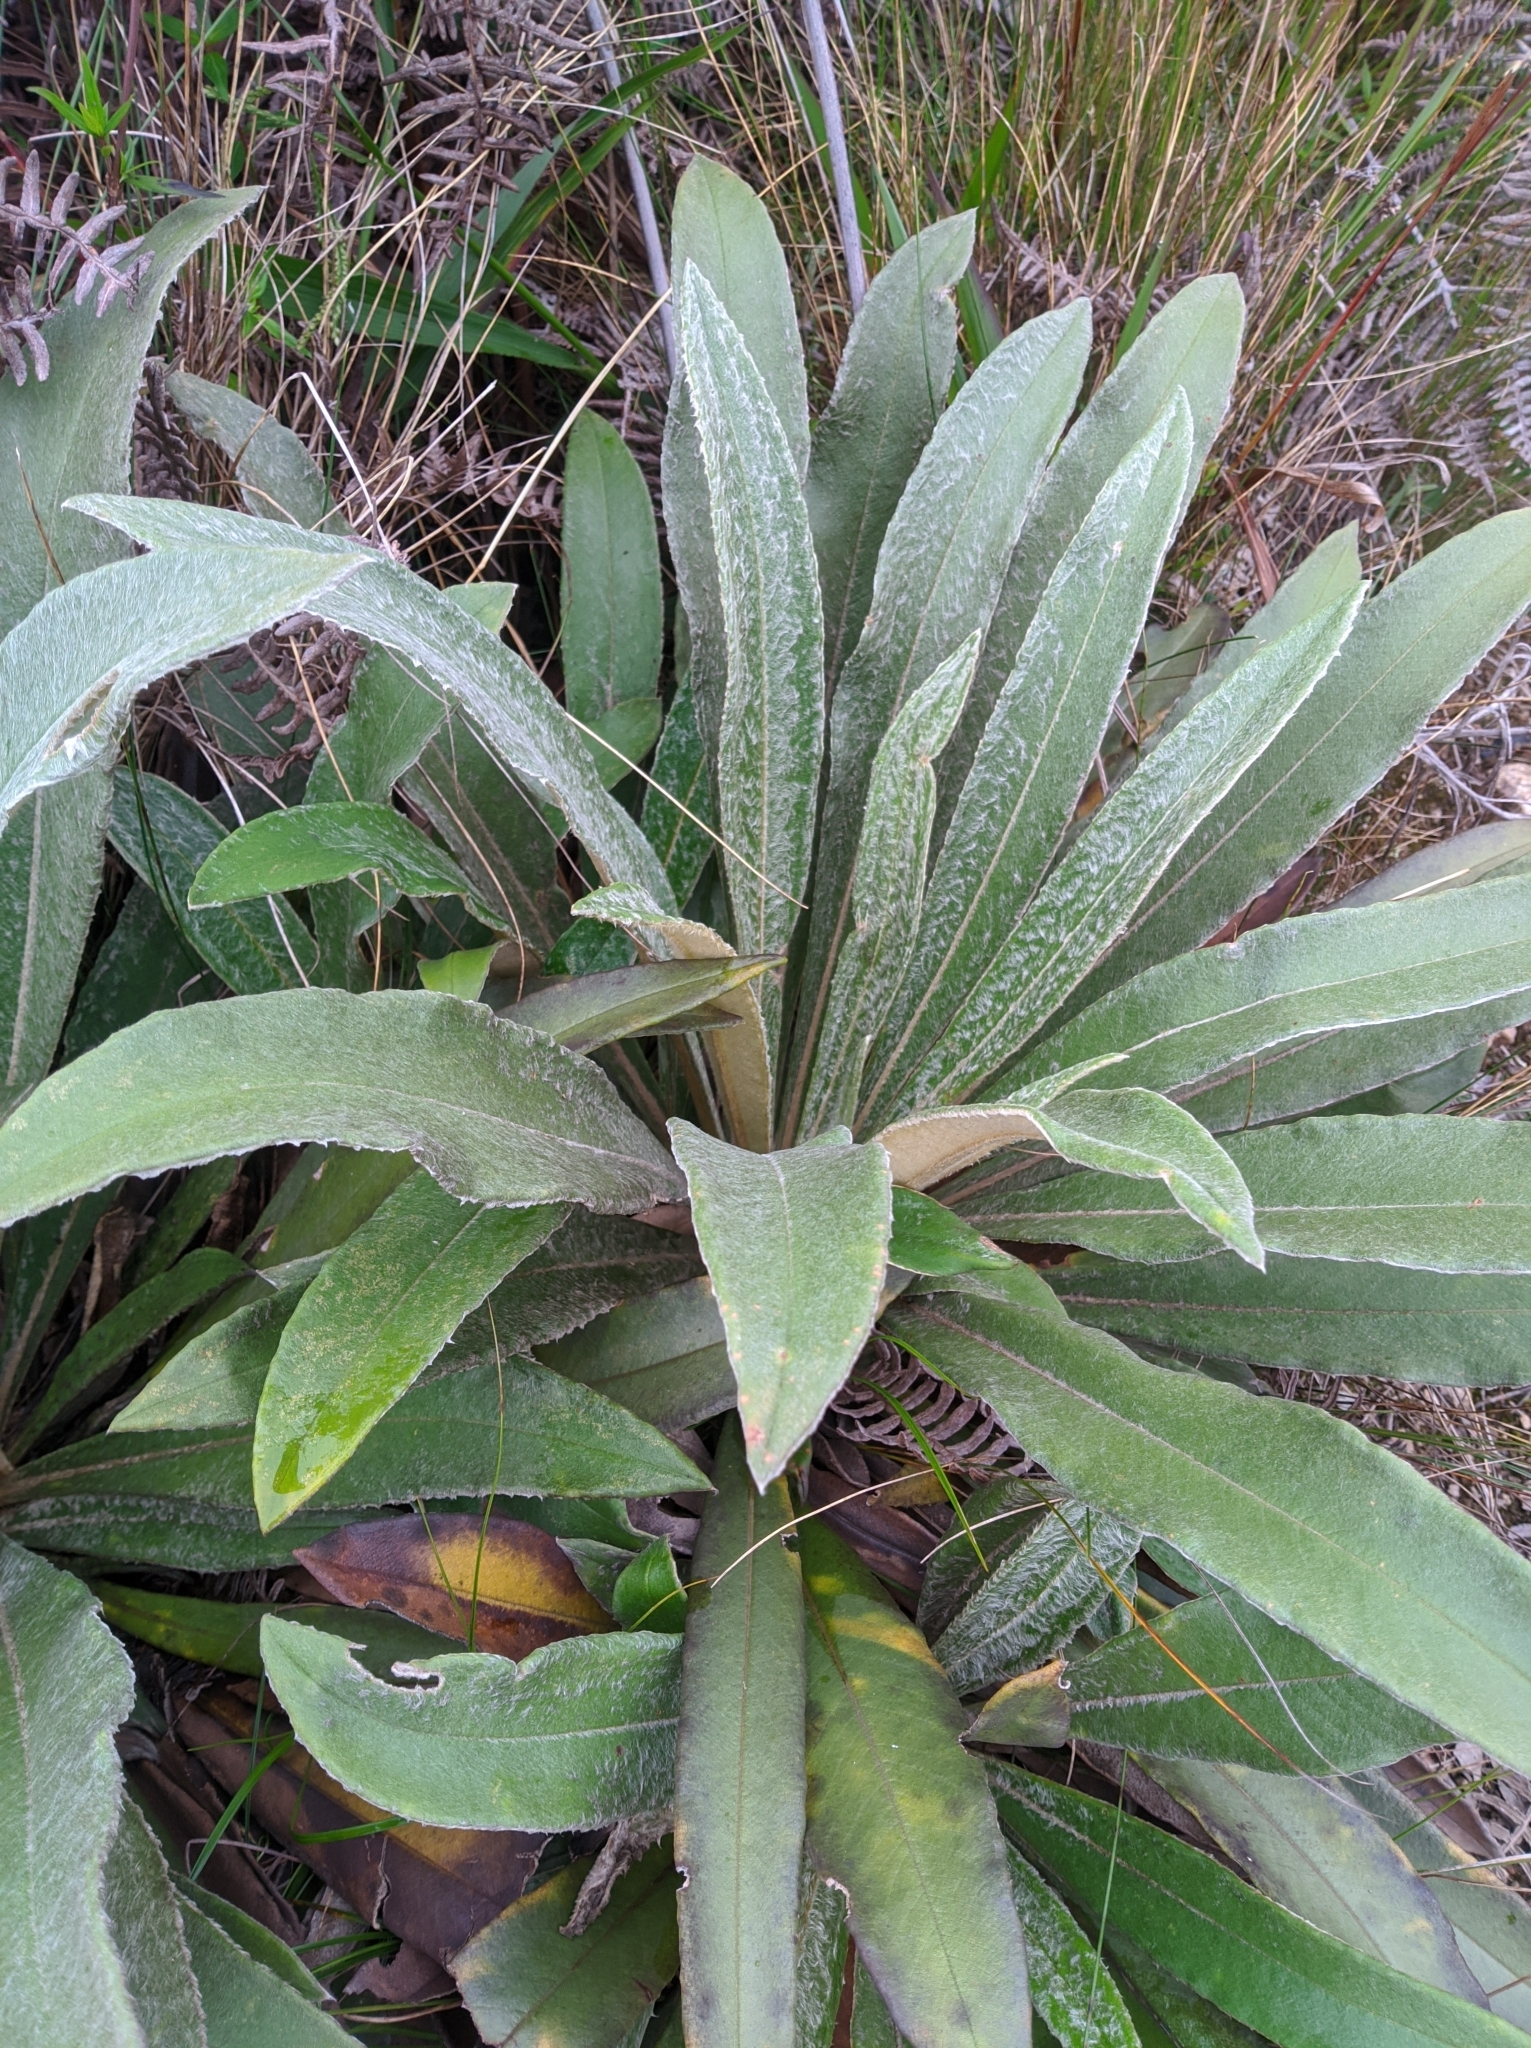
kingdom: Plantae
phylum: Tracheophyta
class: Magnoliopsida
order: Asterales
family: Asteraceae
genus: Espeletia
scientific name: Espeletia bracteosa
